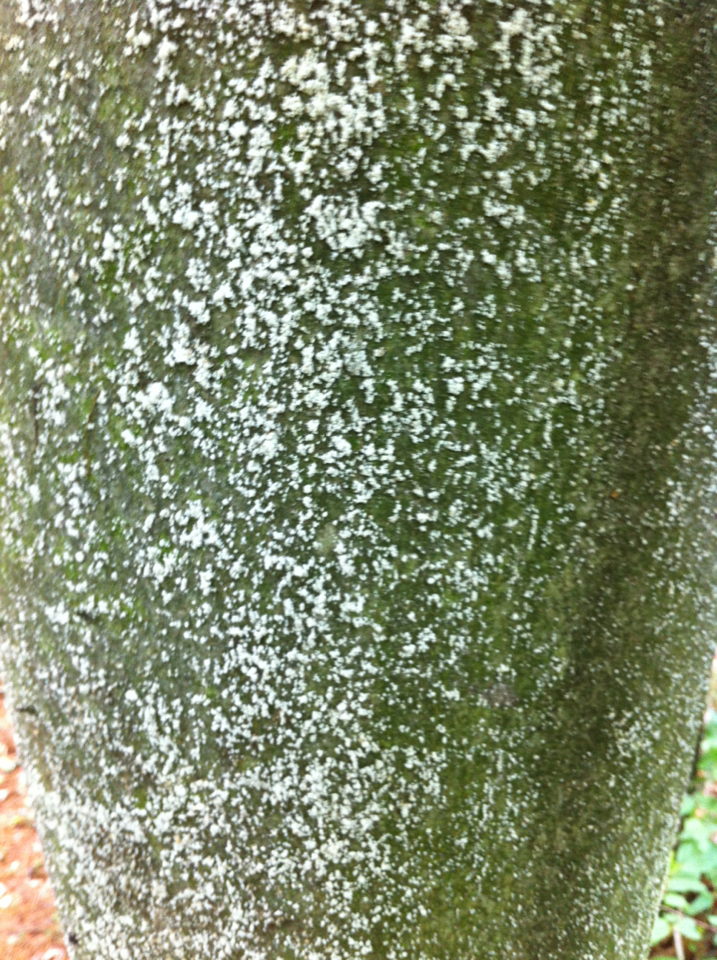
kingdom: Animalia
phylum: Arthropoda
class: Insecta
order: Hemiptera
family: Eriococcidae
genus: Cryptococcus
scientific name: Cryptococcus fagisuga
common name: Beech scale
